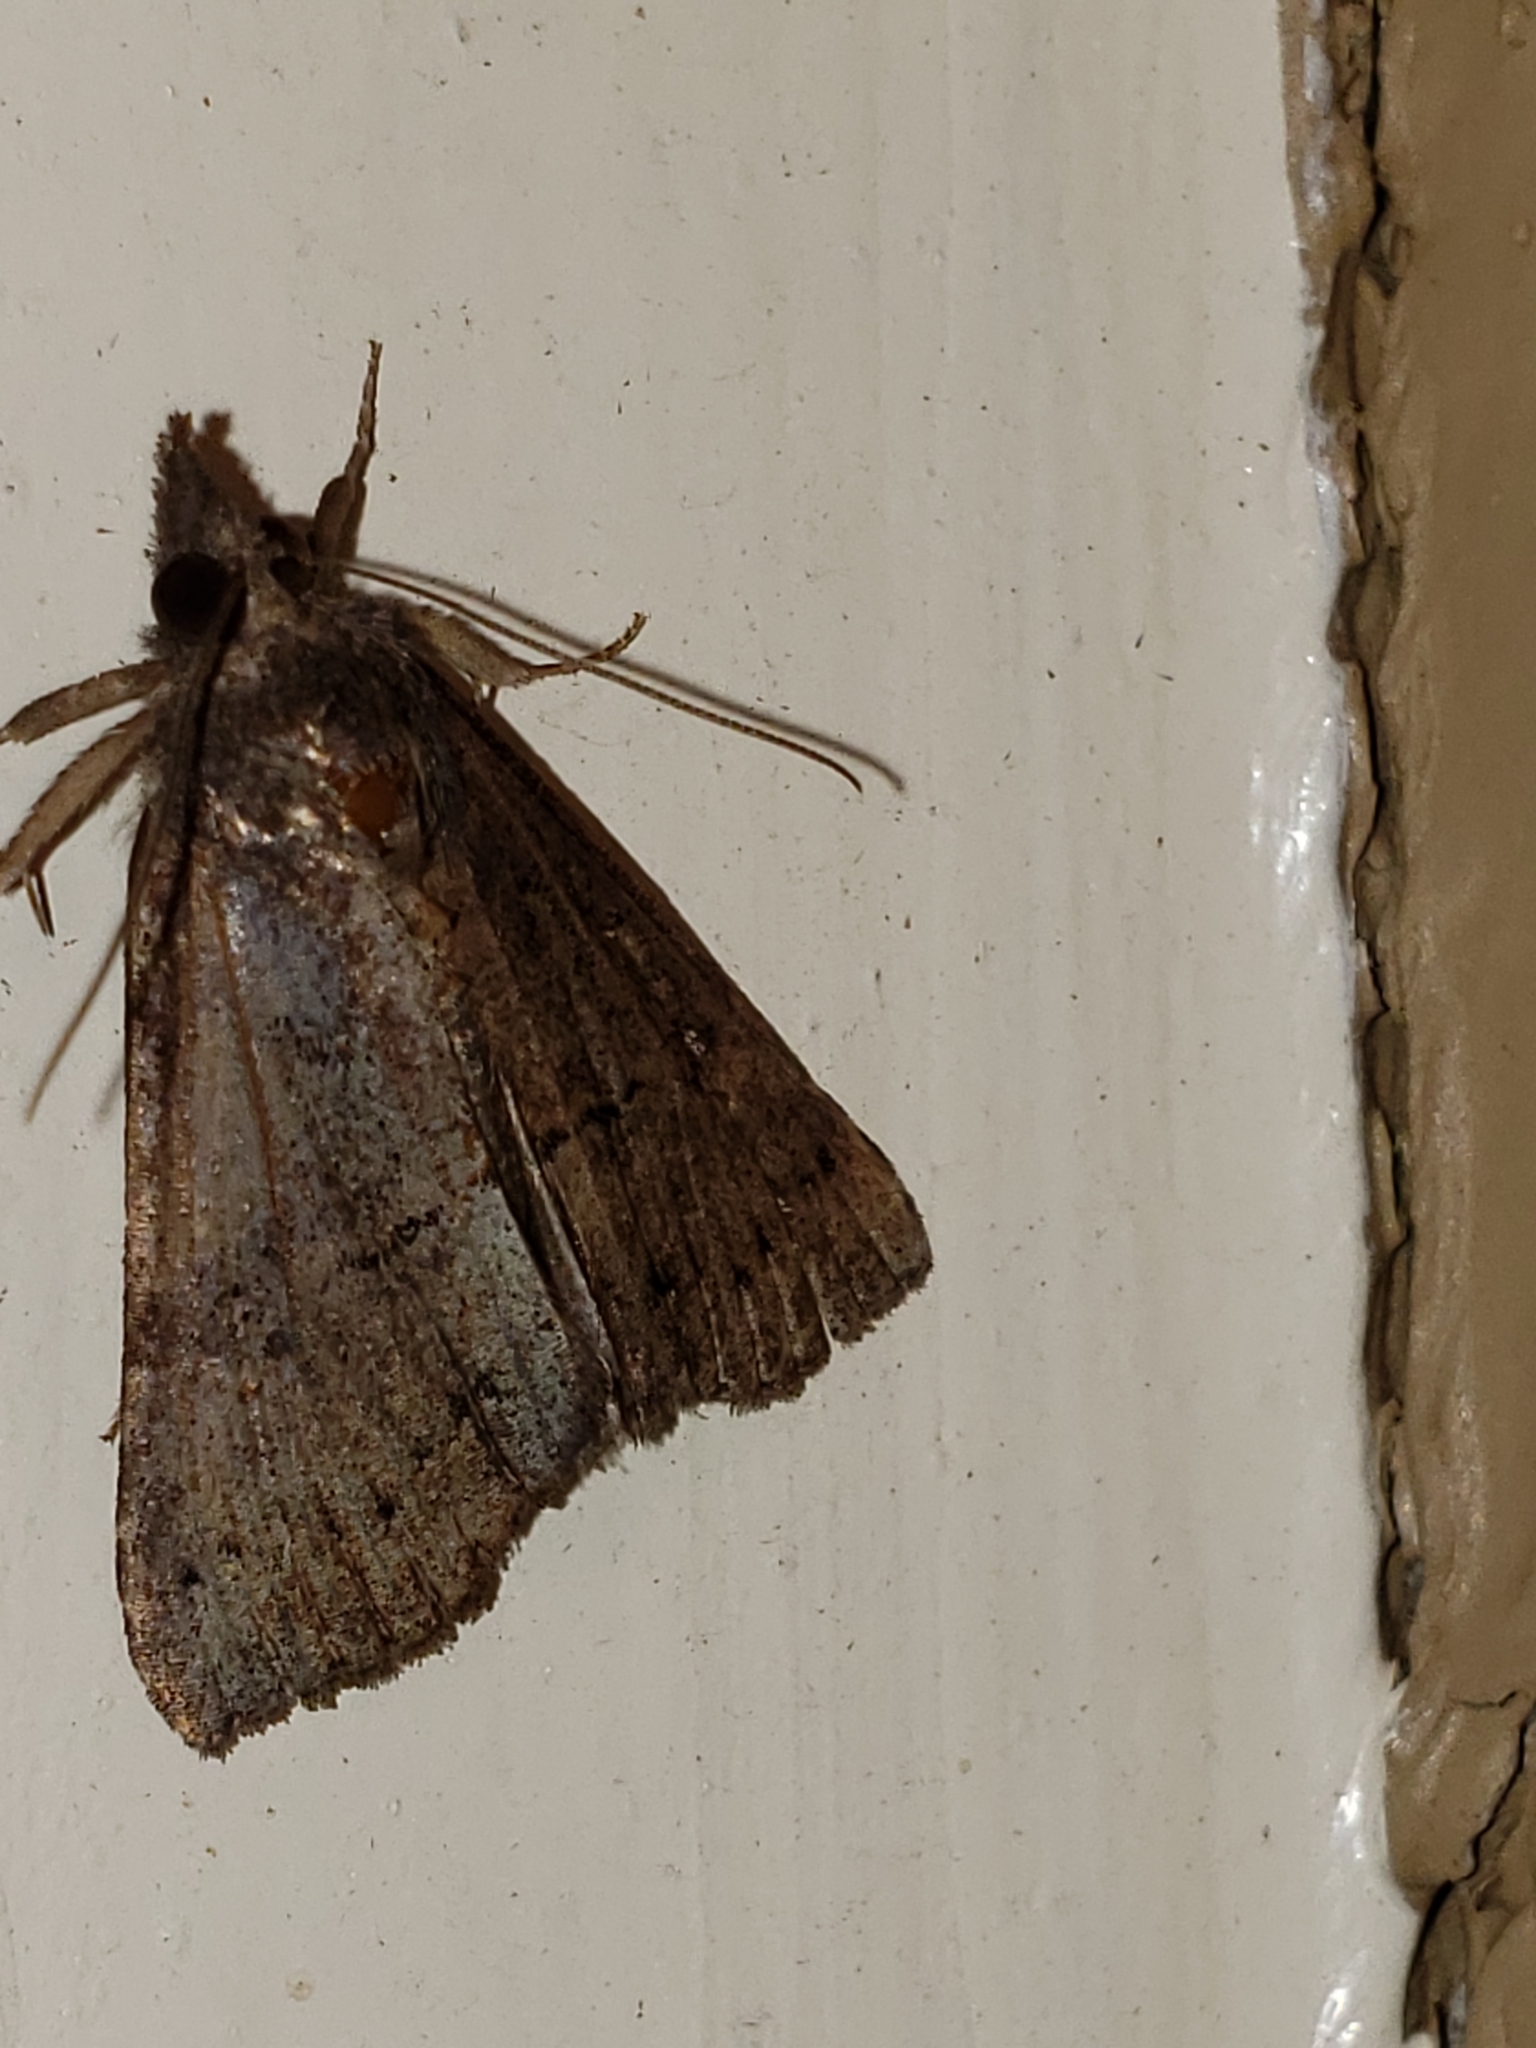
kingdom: Animalia
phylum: Arthropoda
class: Insecta
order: Lepidoptera
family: Erebidae
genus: Hypena
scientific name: Hypena scabra
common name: Green cloverworm
